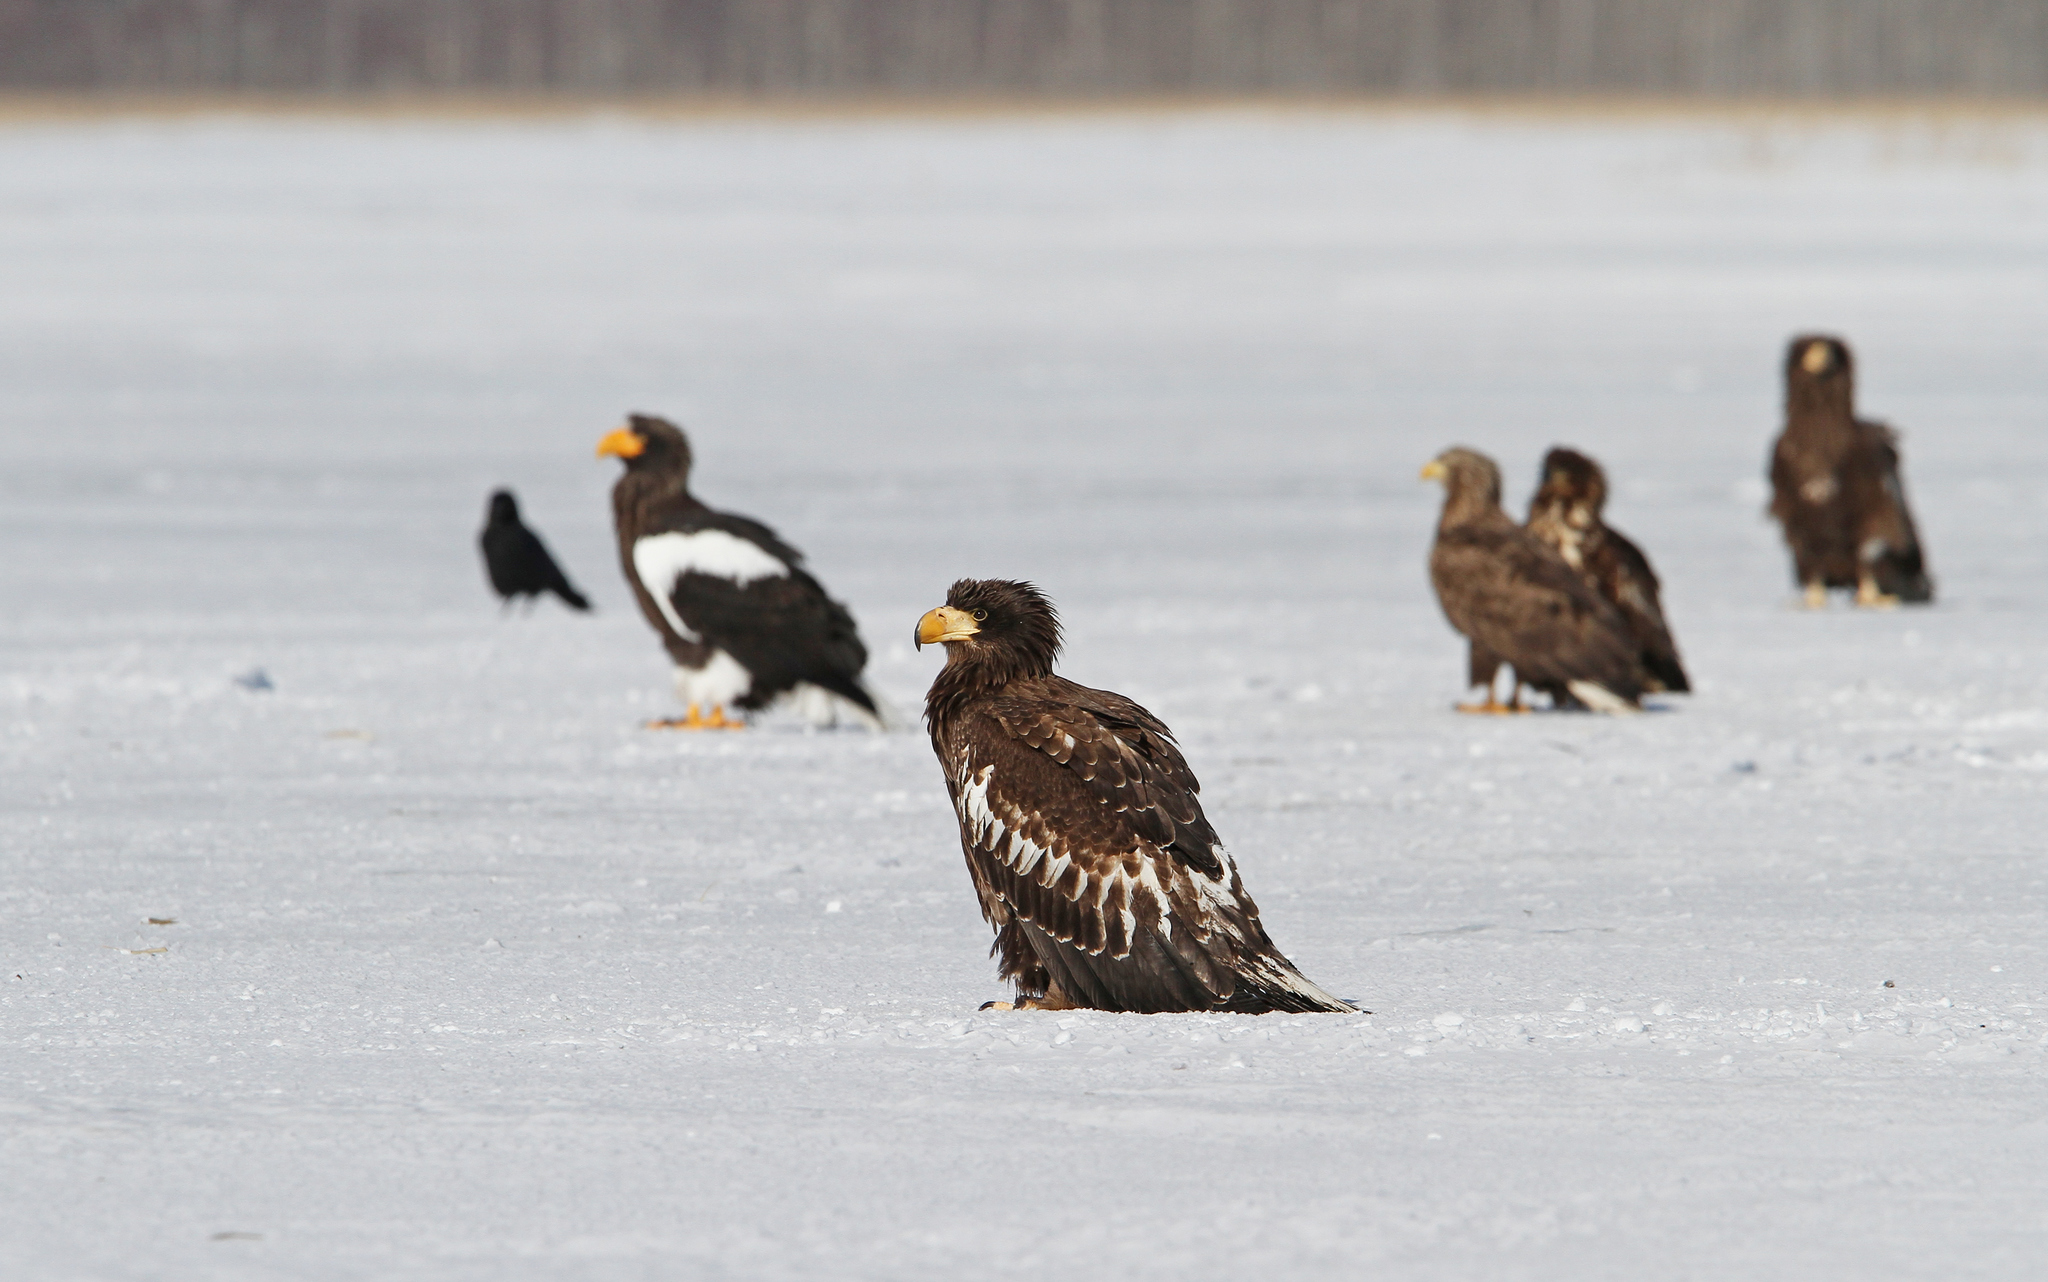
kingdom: Animalia
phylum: Chordata
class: Aves
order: Accipitriformes
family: Accipitridae
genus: Haliaeetus
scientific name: Haliaeetus pelagicus
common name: Steller's sea eagle
